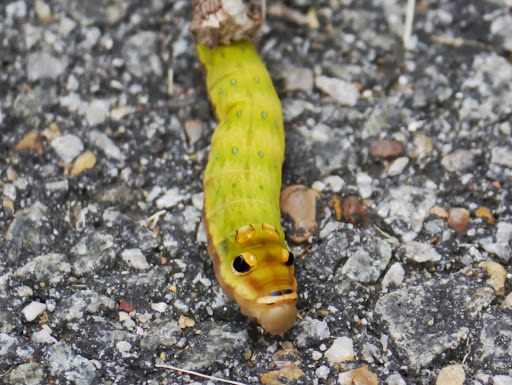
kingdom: Animalia
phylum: Arthropoda
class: Insecta
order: Lepidoptera
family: Papilionidae
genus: Papilio
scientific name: Papilio troilus
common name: Spicebush swallowtail
